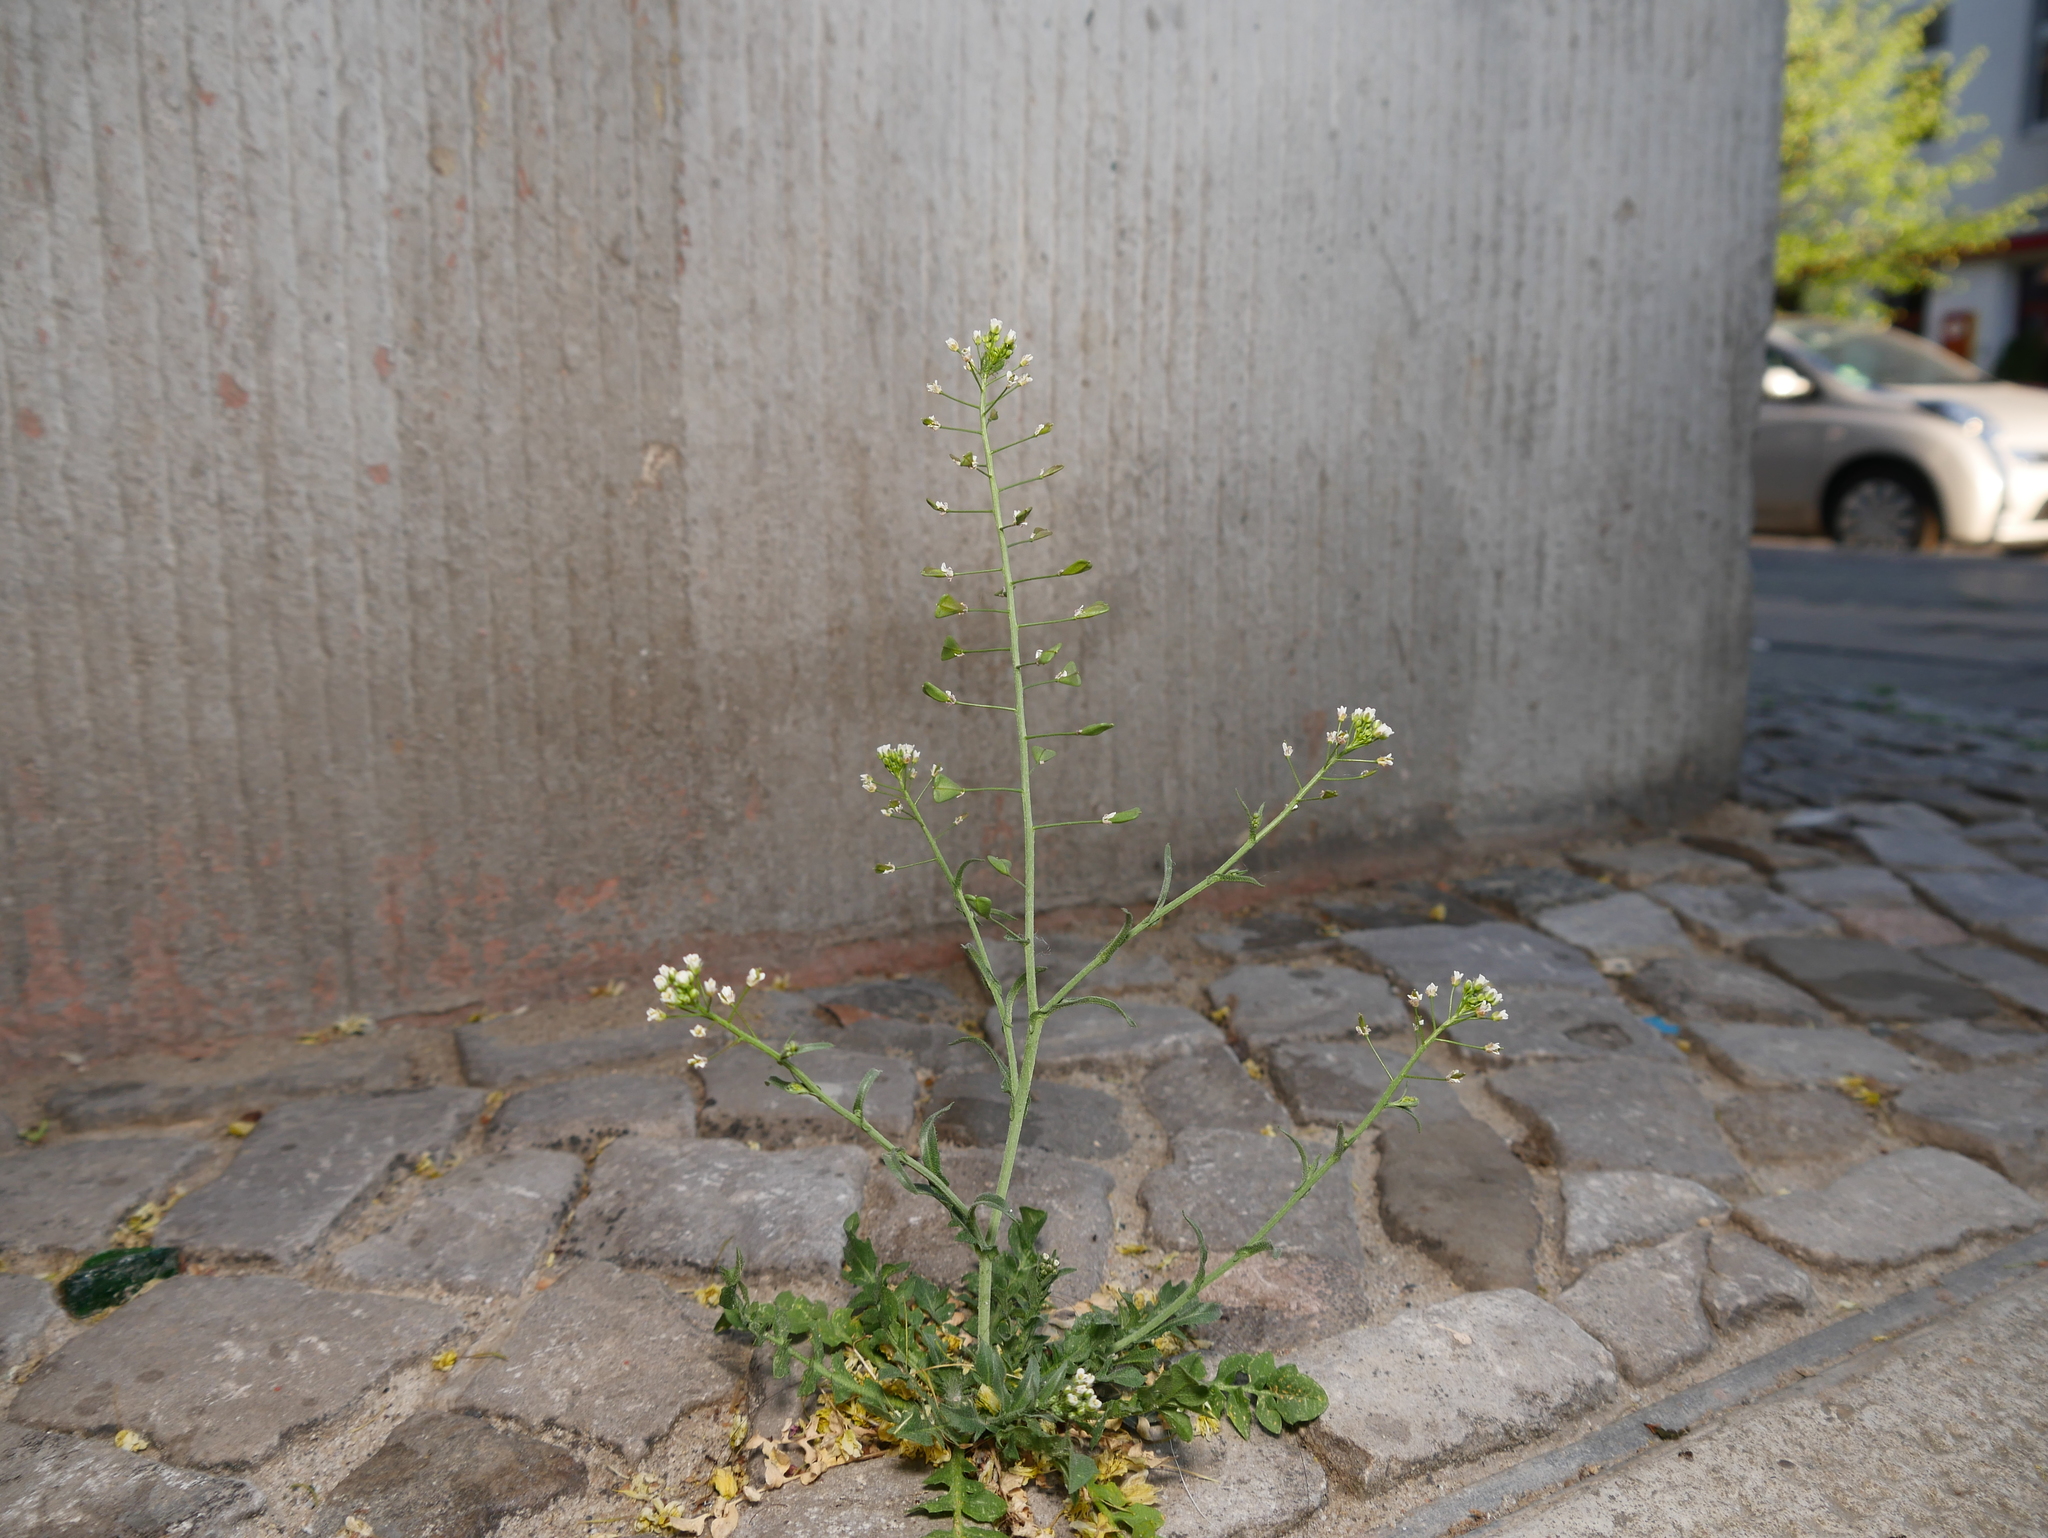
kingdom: Plantae
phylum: Tracheophyta
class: Magnoliopsida
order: Brassicales
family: Brassicaceae
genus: Capsella
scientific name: Capsella bursa-pastoris
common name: Shepherd's purse
